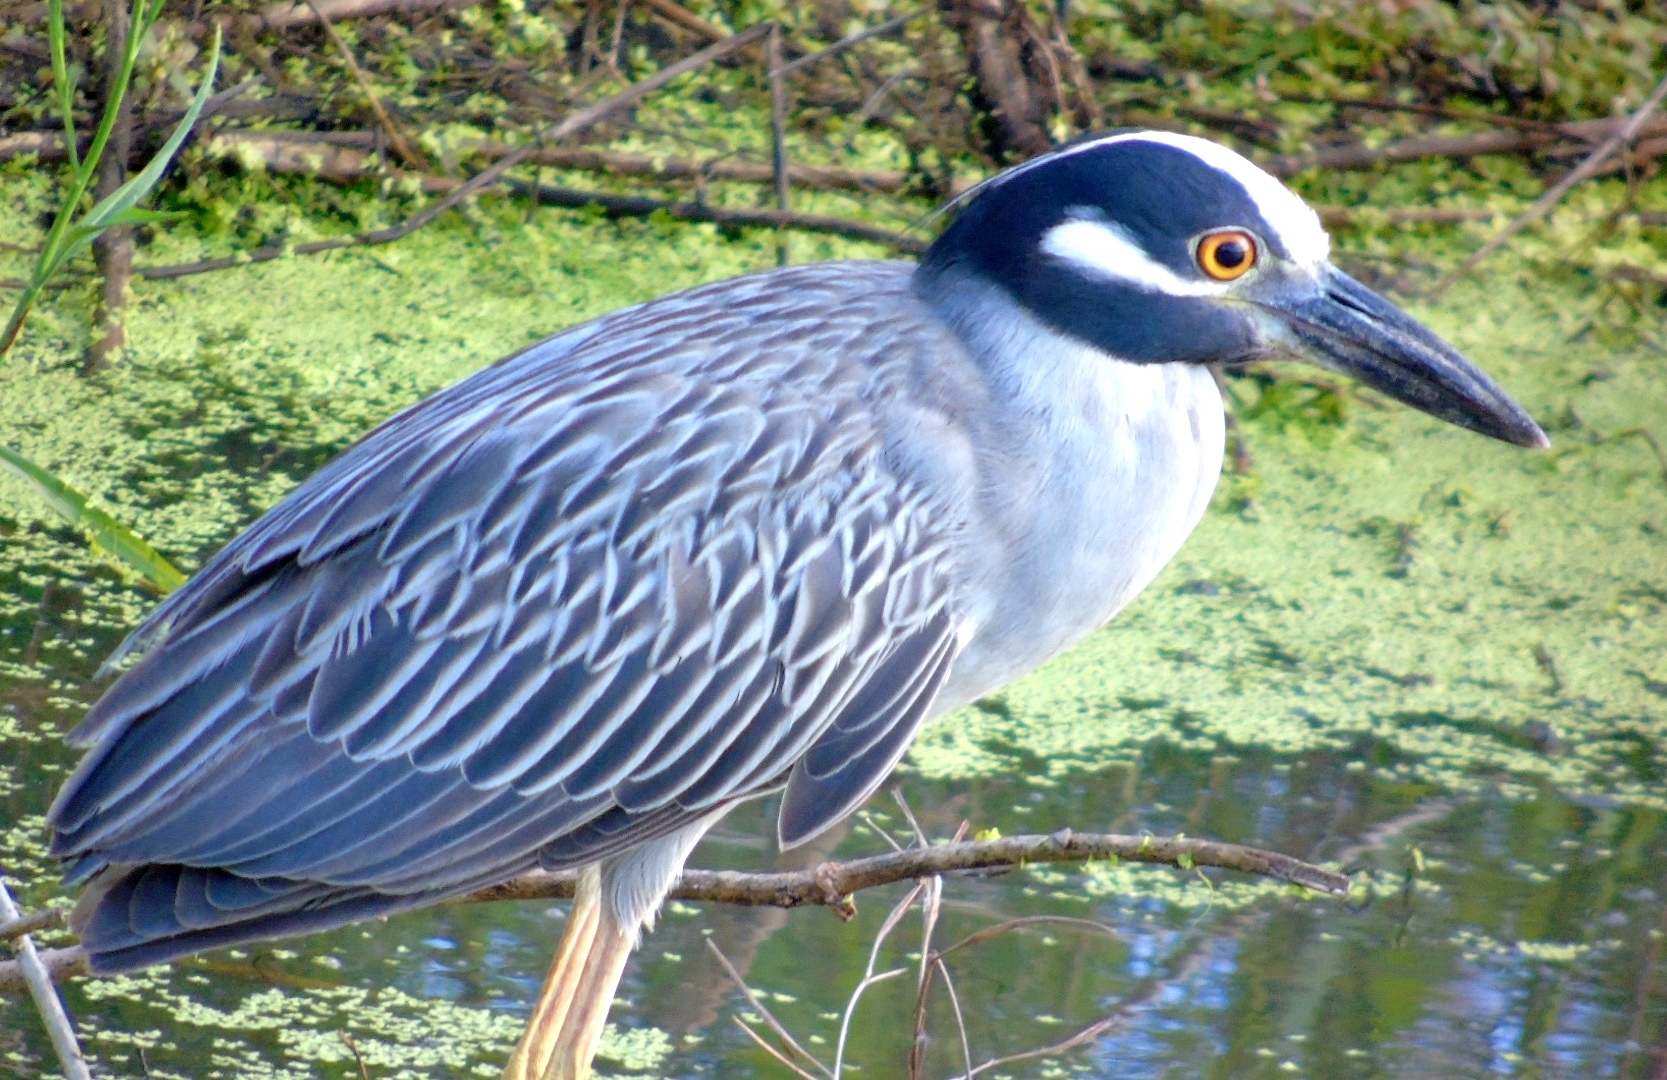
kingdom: Animalia
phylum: Chordata
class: Aves
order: Pelecaniformes
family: Ardeidae
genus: Nyctanassa
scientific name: Nyctanassa violacea
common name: Yellow-crowned night heron
